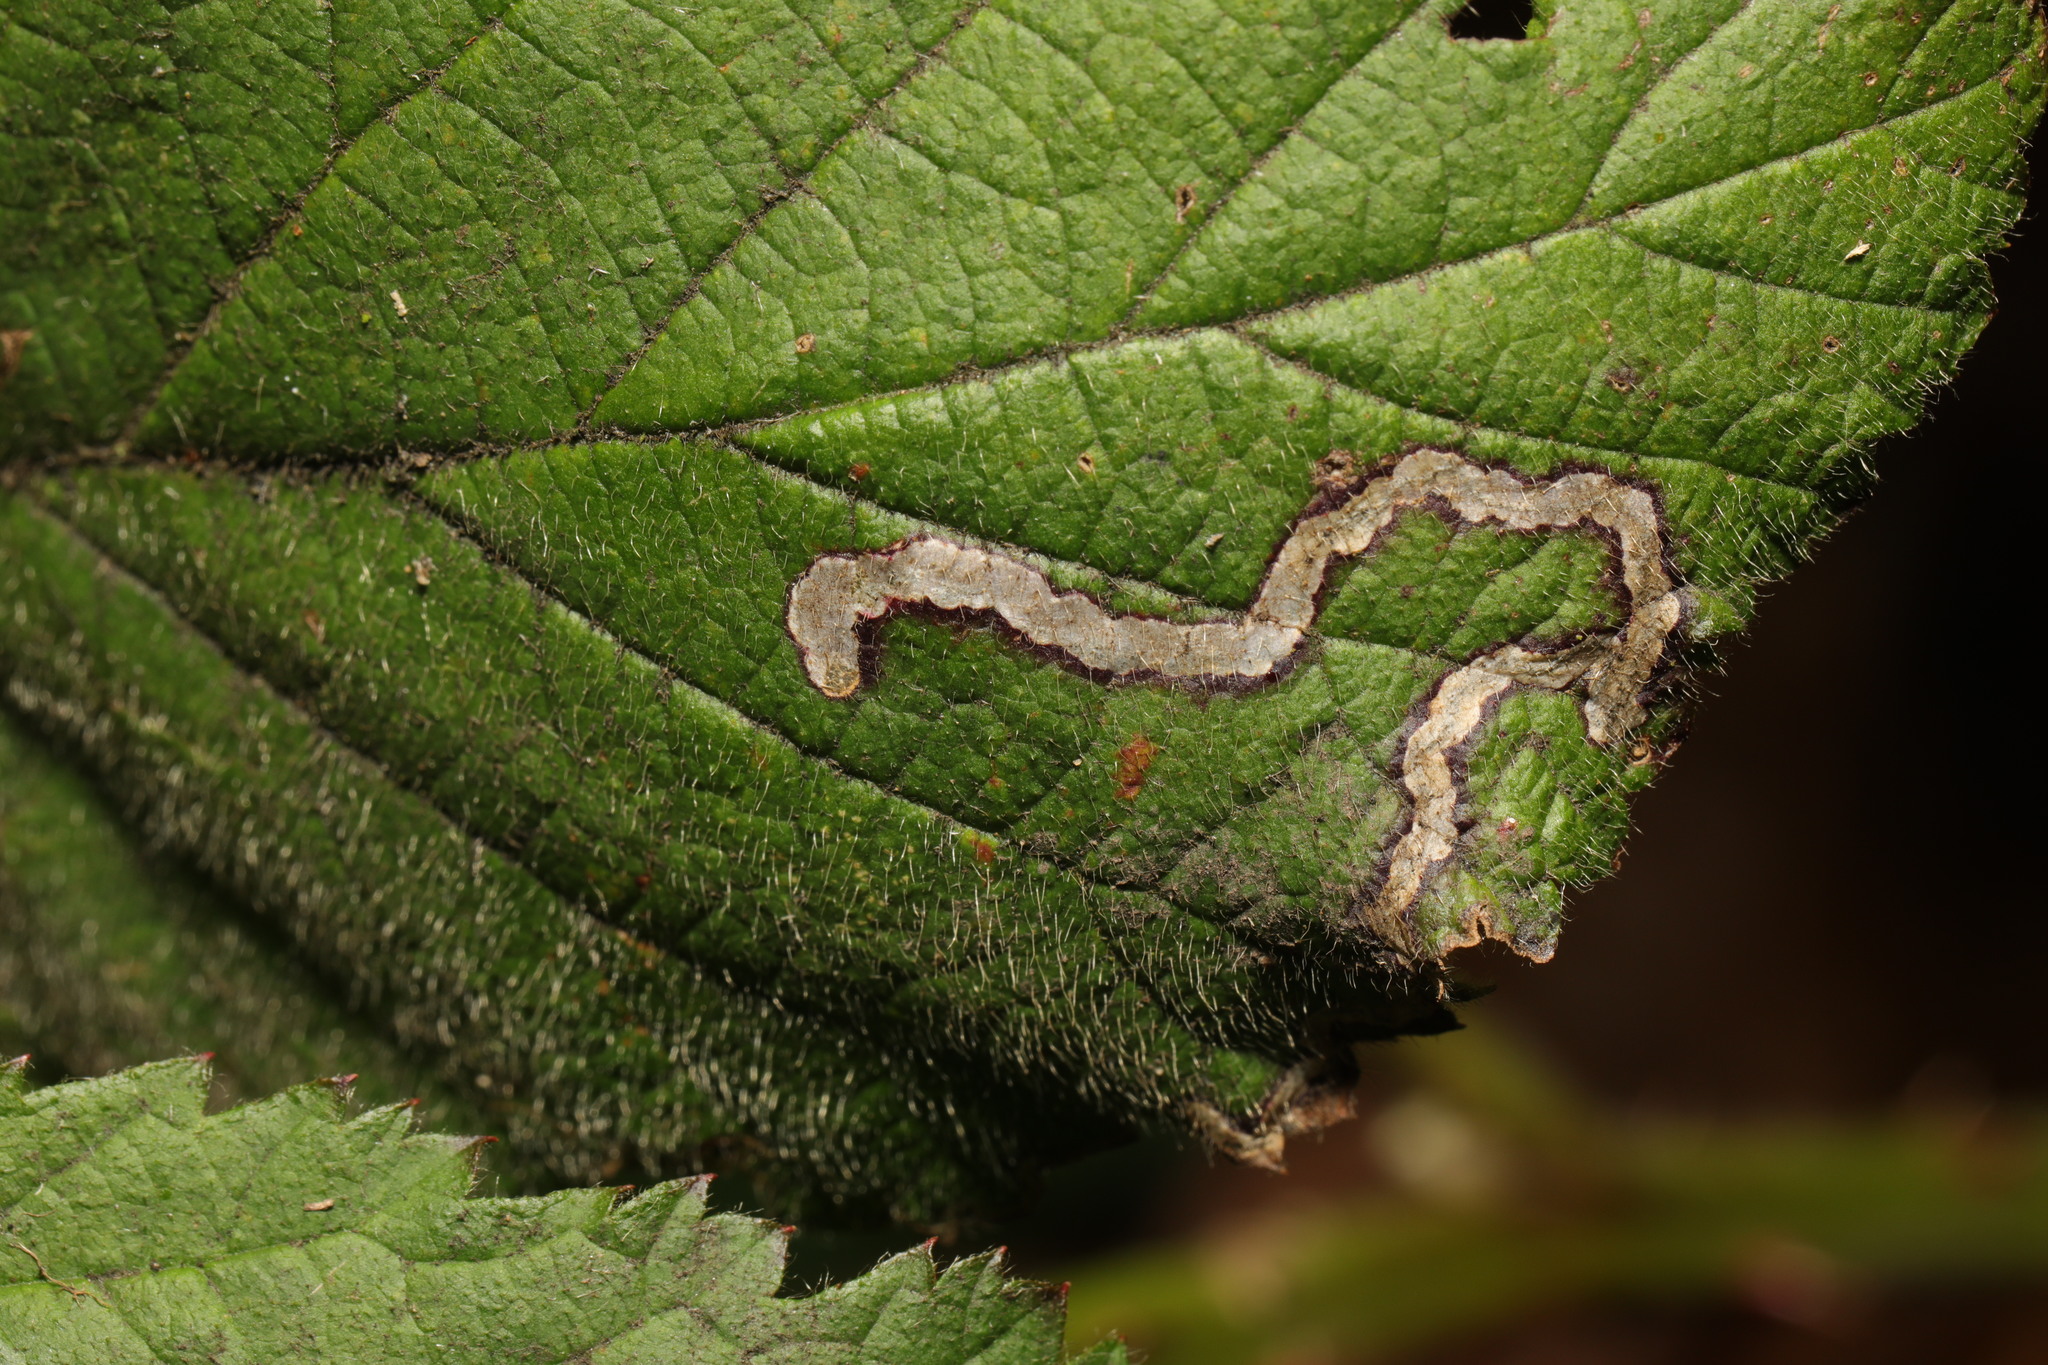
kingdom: Animalia
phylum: Arthropoda
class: Insecta
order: Lepidoptera
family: Nepticulidae
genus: Stigmella
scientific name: Stigmella aurella
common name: Golden pigmy
